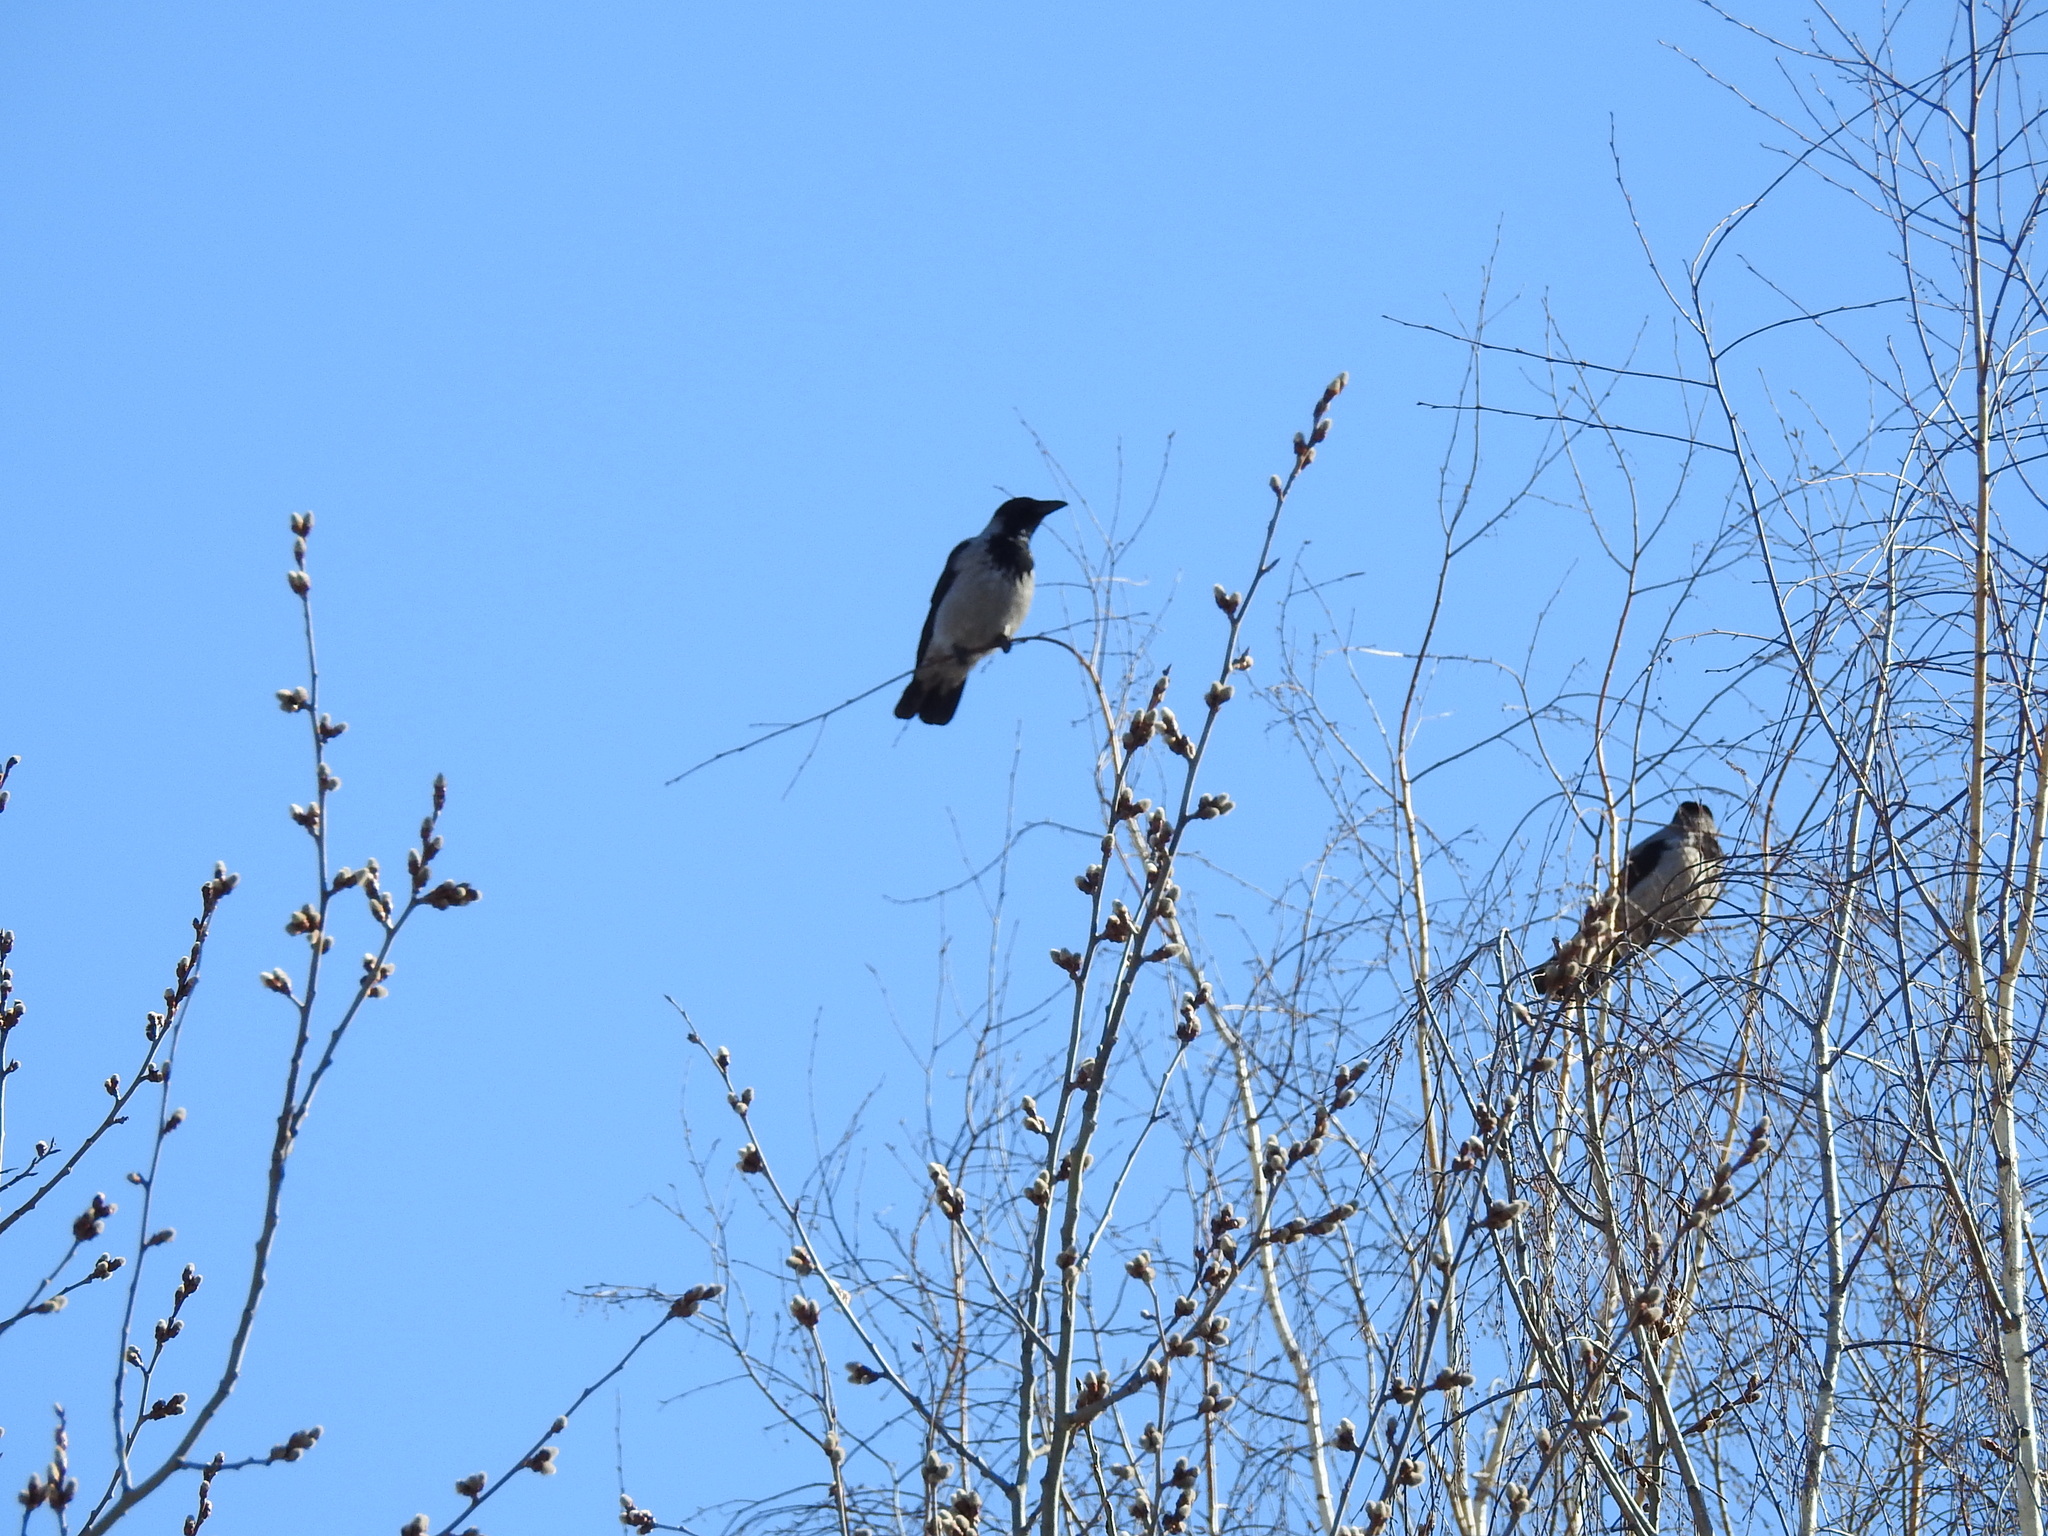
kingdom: Animalia
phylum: Chordata
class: Aves
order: Passeriformes
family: Corvidae
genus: Corvus
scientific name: Corvus cornix
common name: Hooded crow
